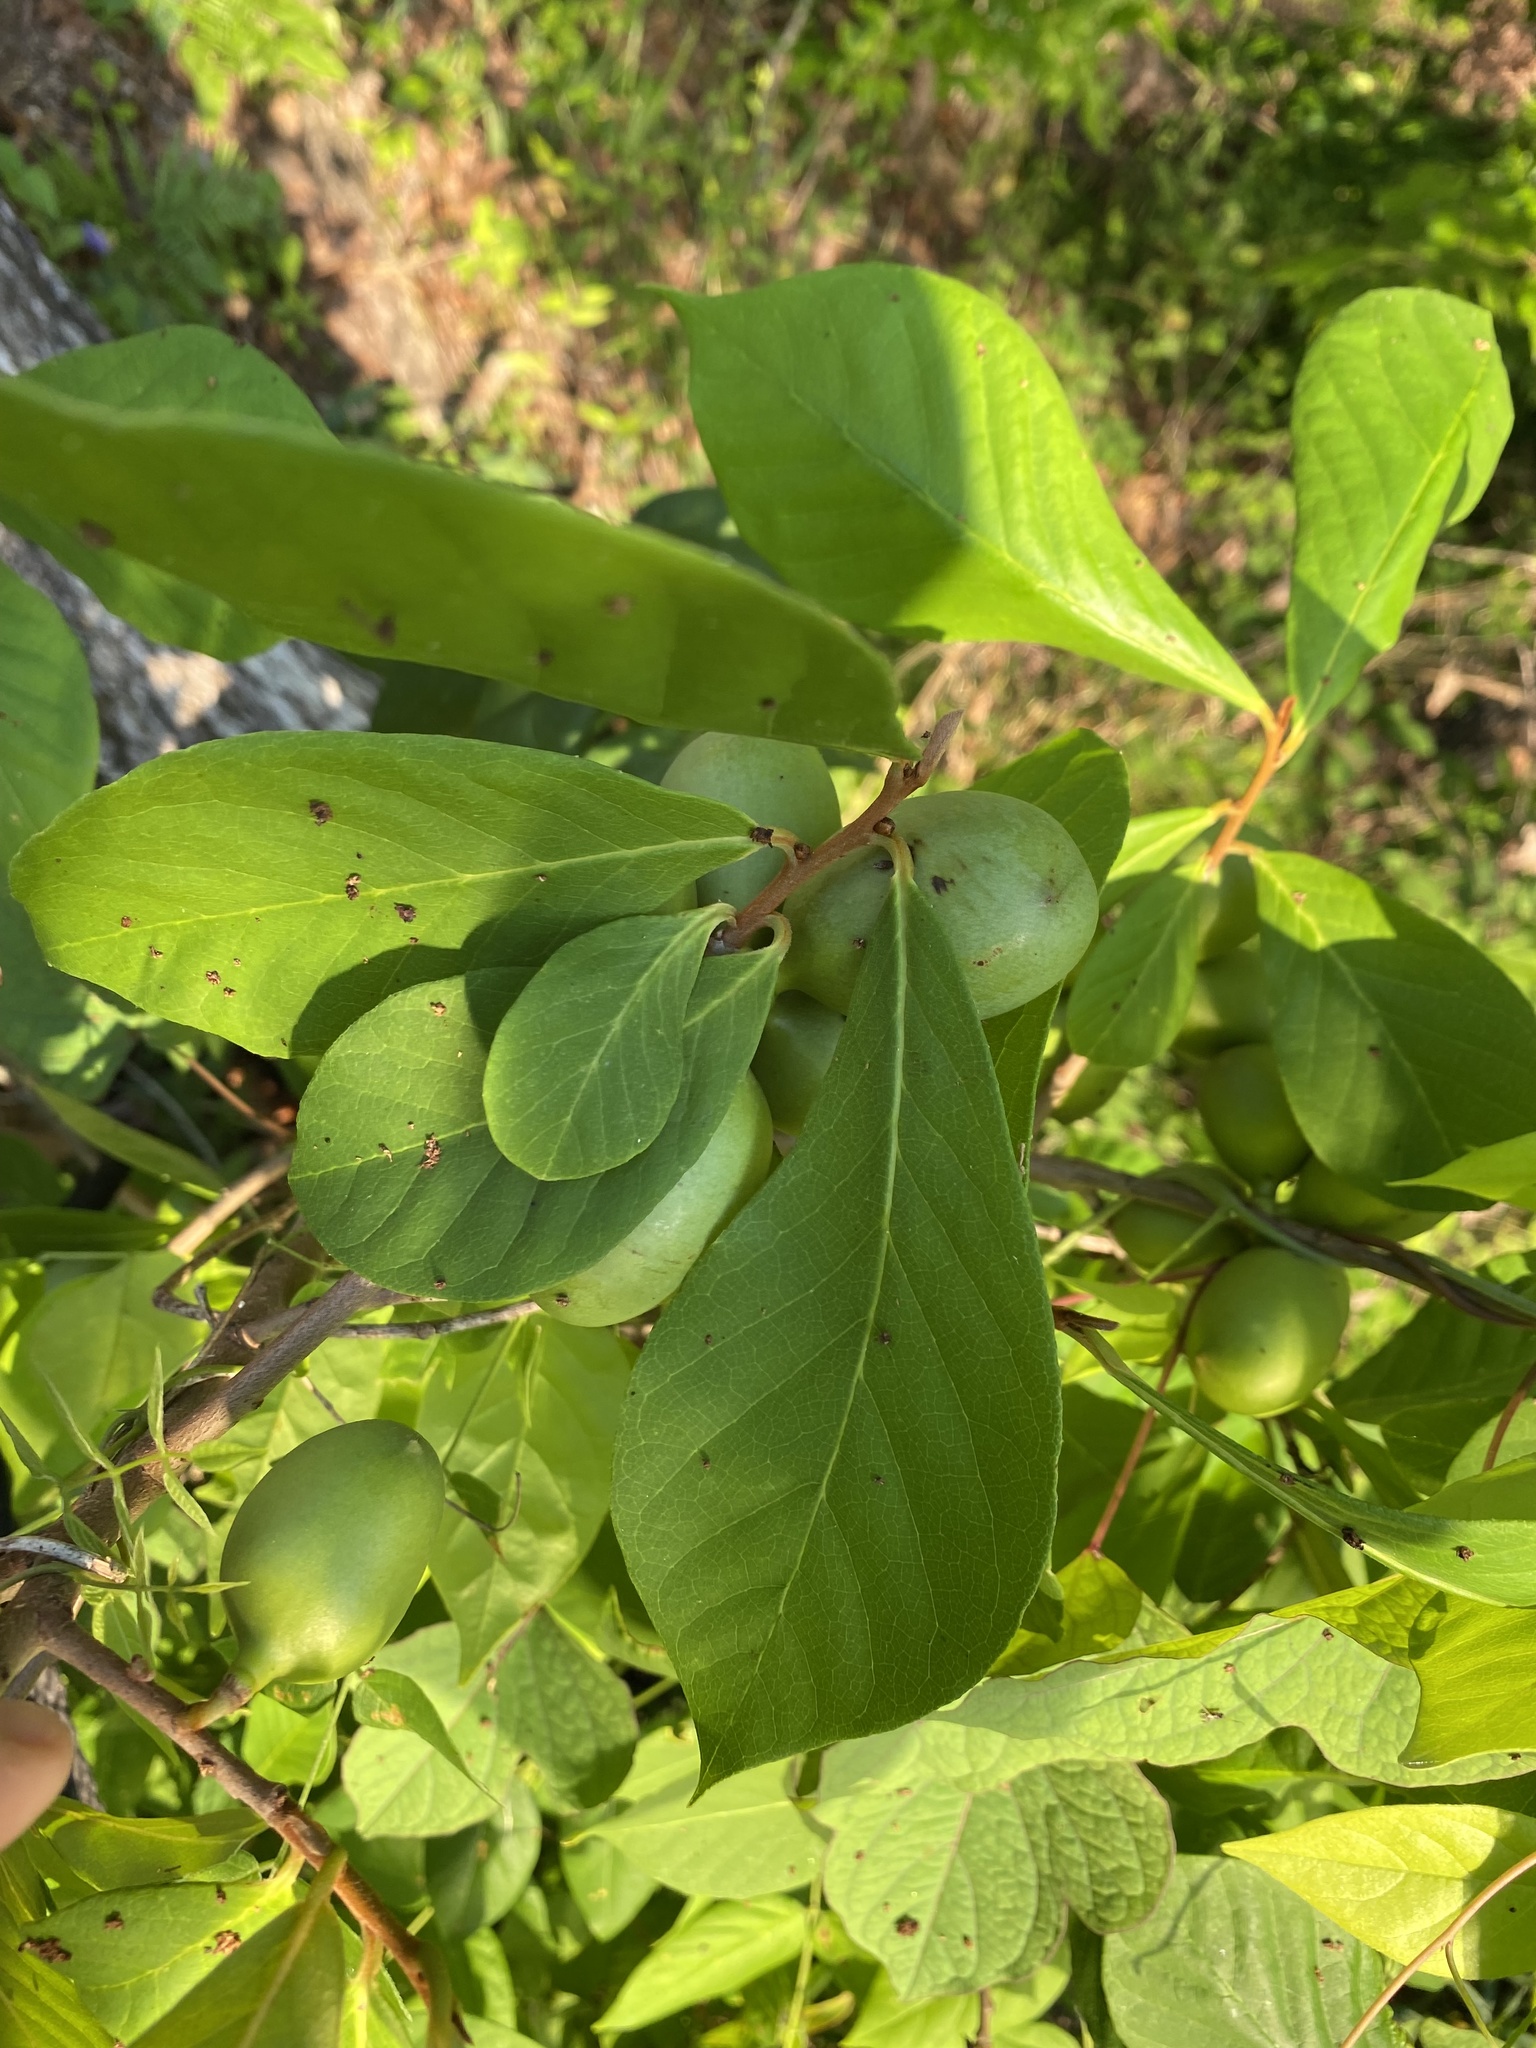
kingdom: Plantae
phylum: Tracheophyta
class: Magnoliopsida
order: Magnoliales
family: Annonaceae
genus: Asimina
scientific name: Asimina parviflora
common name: Dwarf pawpaw
